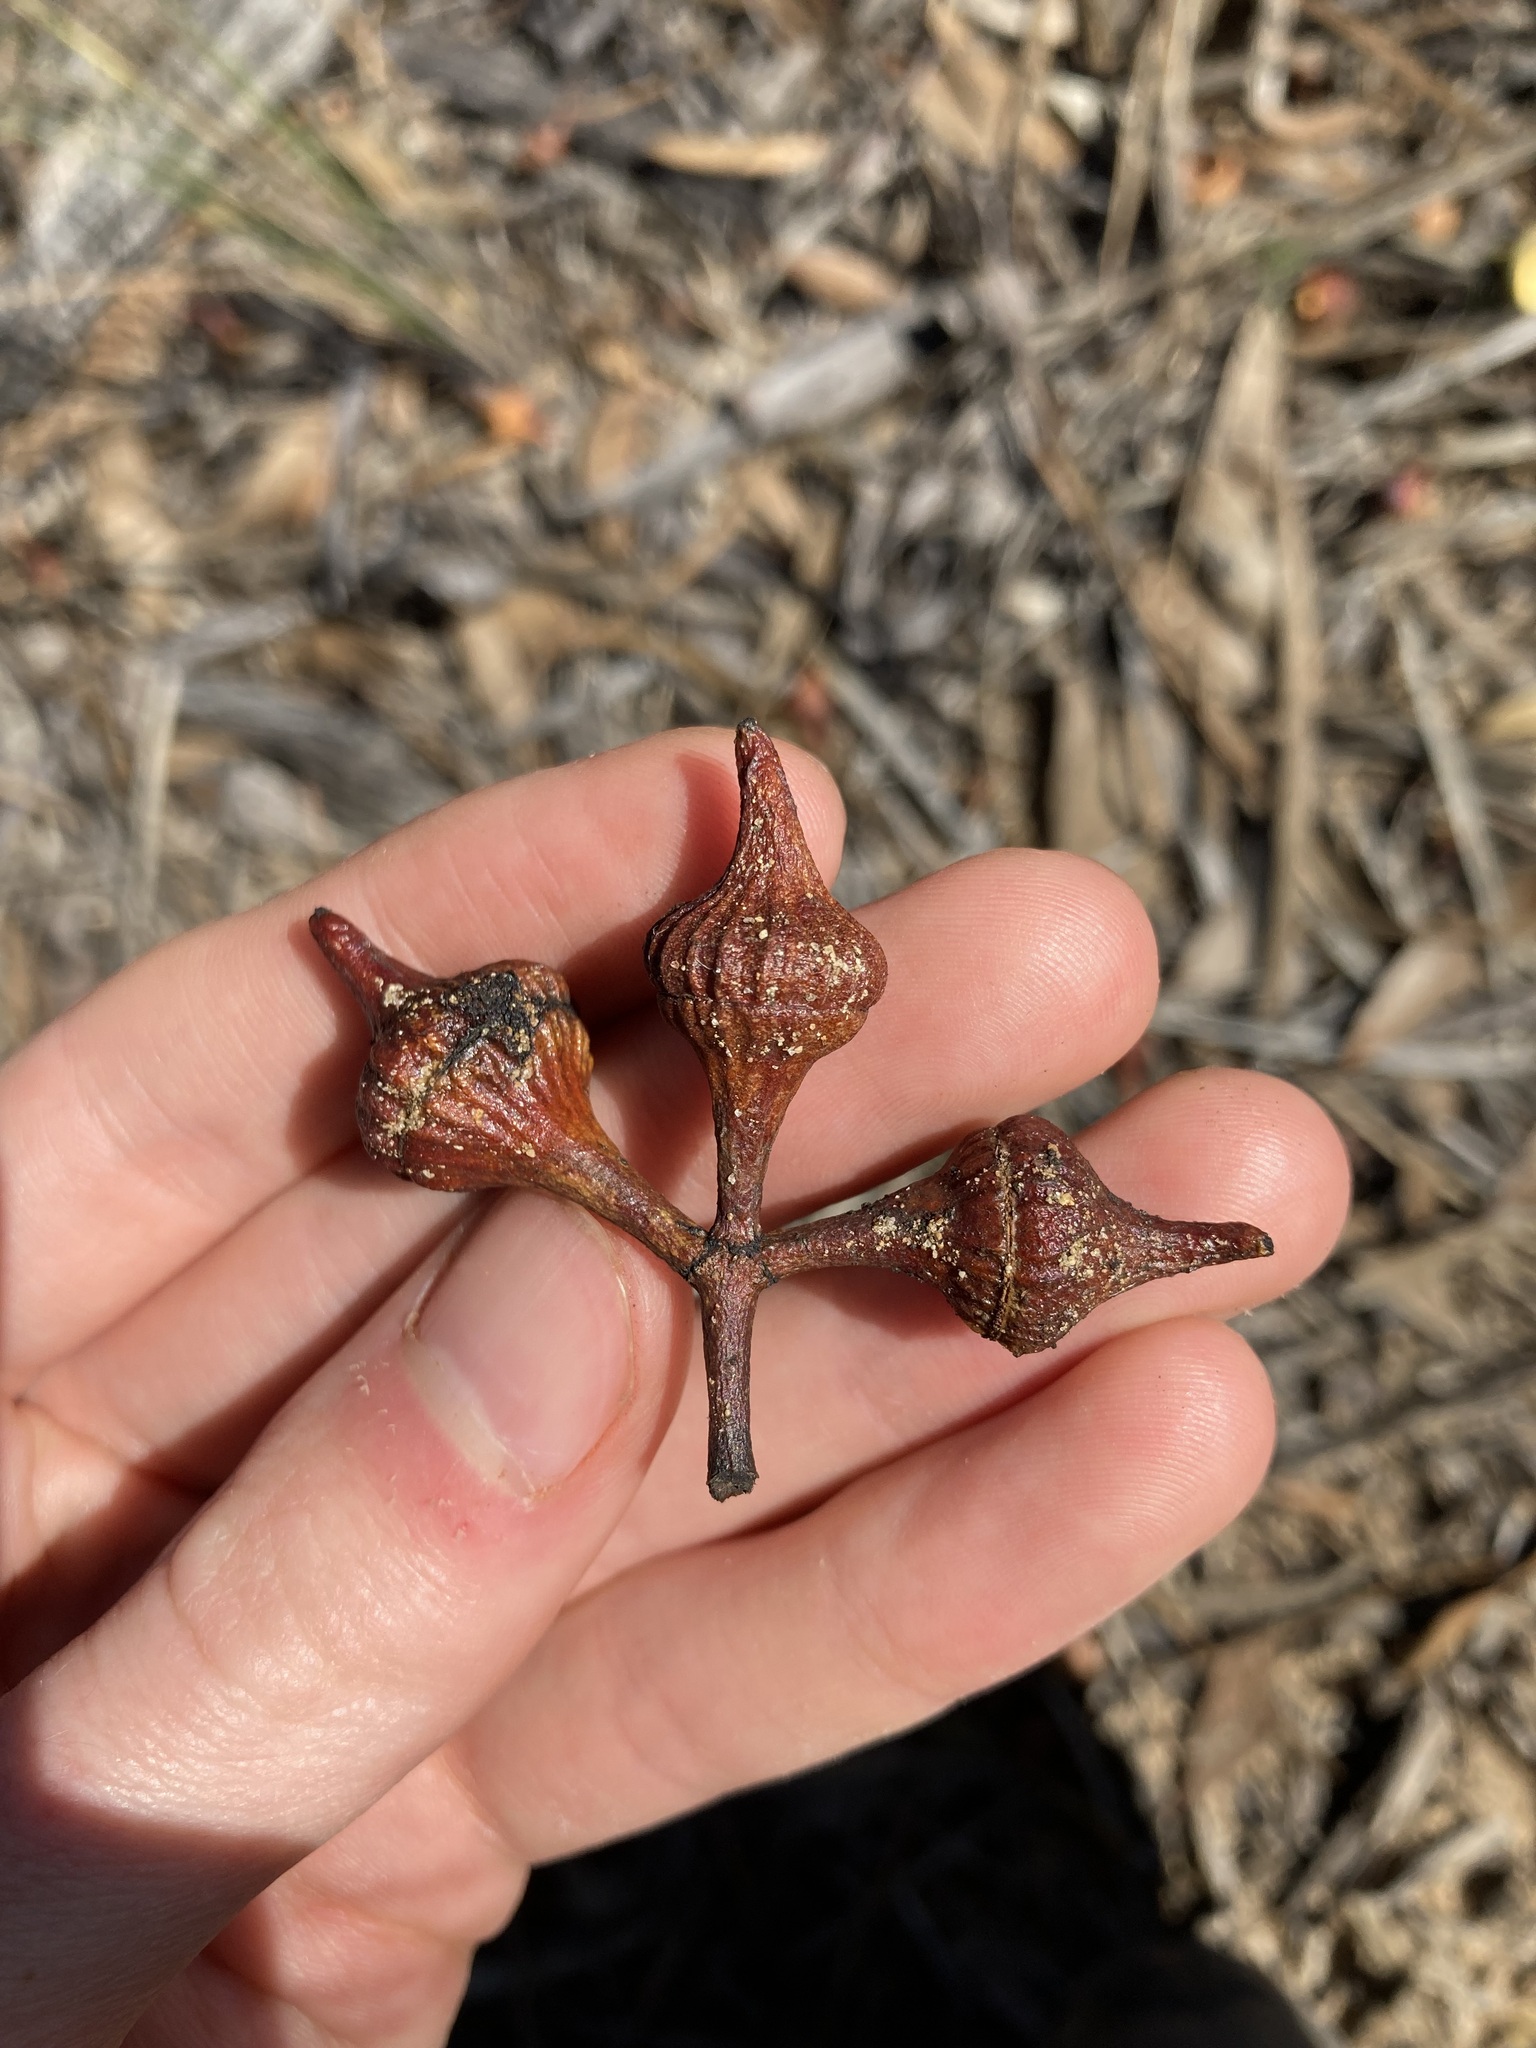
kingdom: Plantae
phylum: Tracheophyta
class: Magnoliopsida
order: Myrtales
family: Myrtaceae
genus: Eucalyptus
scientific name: Eucalyptus burracoppinensis
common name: Burracoppin mallee
